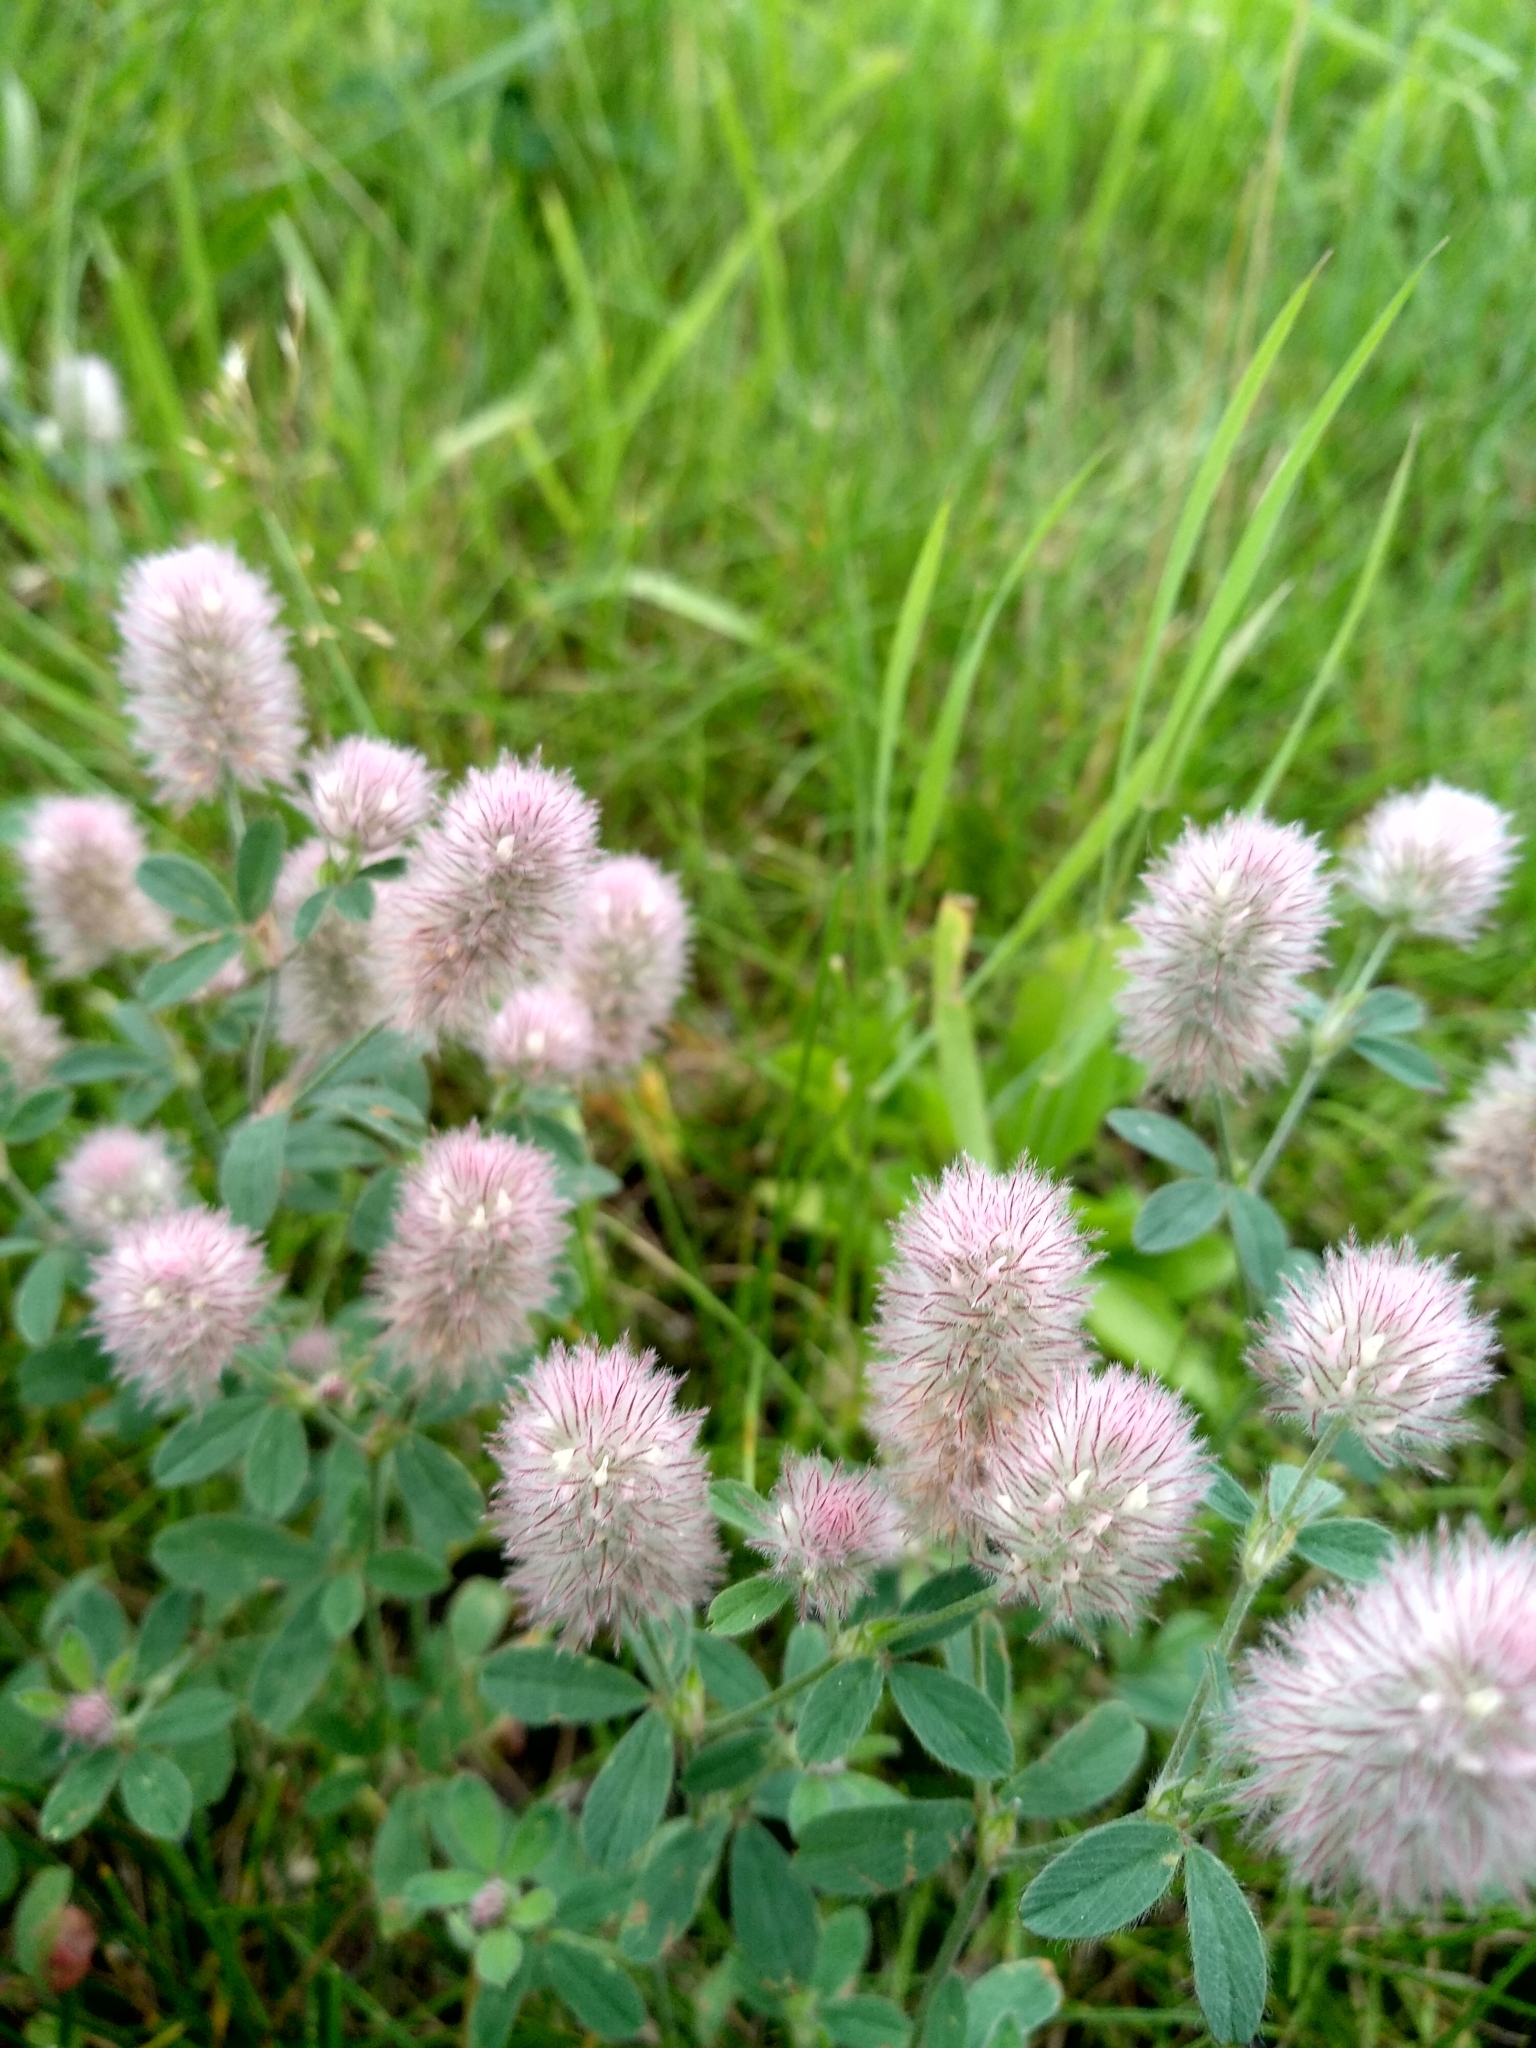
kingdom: Plantae
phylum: Tracheophyta
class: Magnoliopsida
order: Fabales
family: Fabaceae
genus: Trifolium
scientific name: Trifolium arvense
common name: Hare's-foot clover
